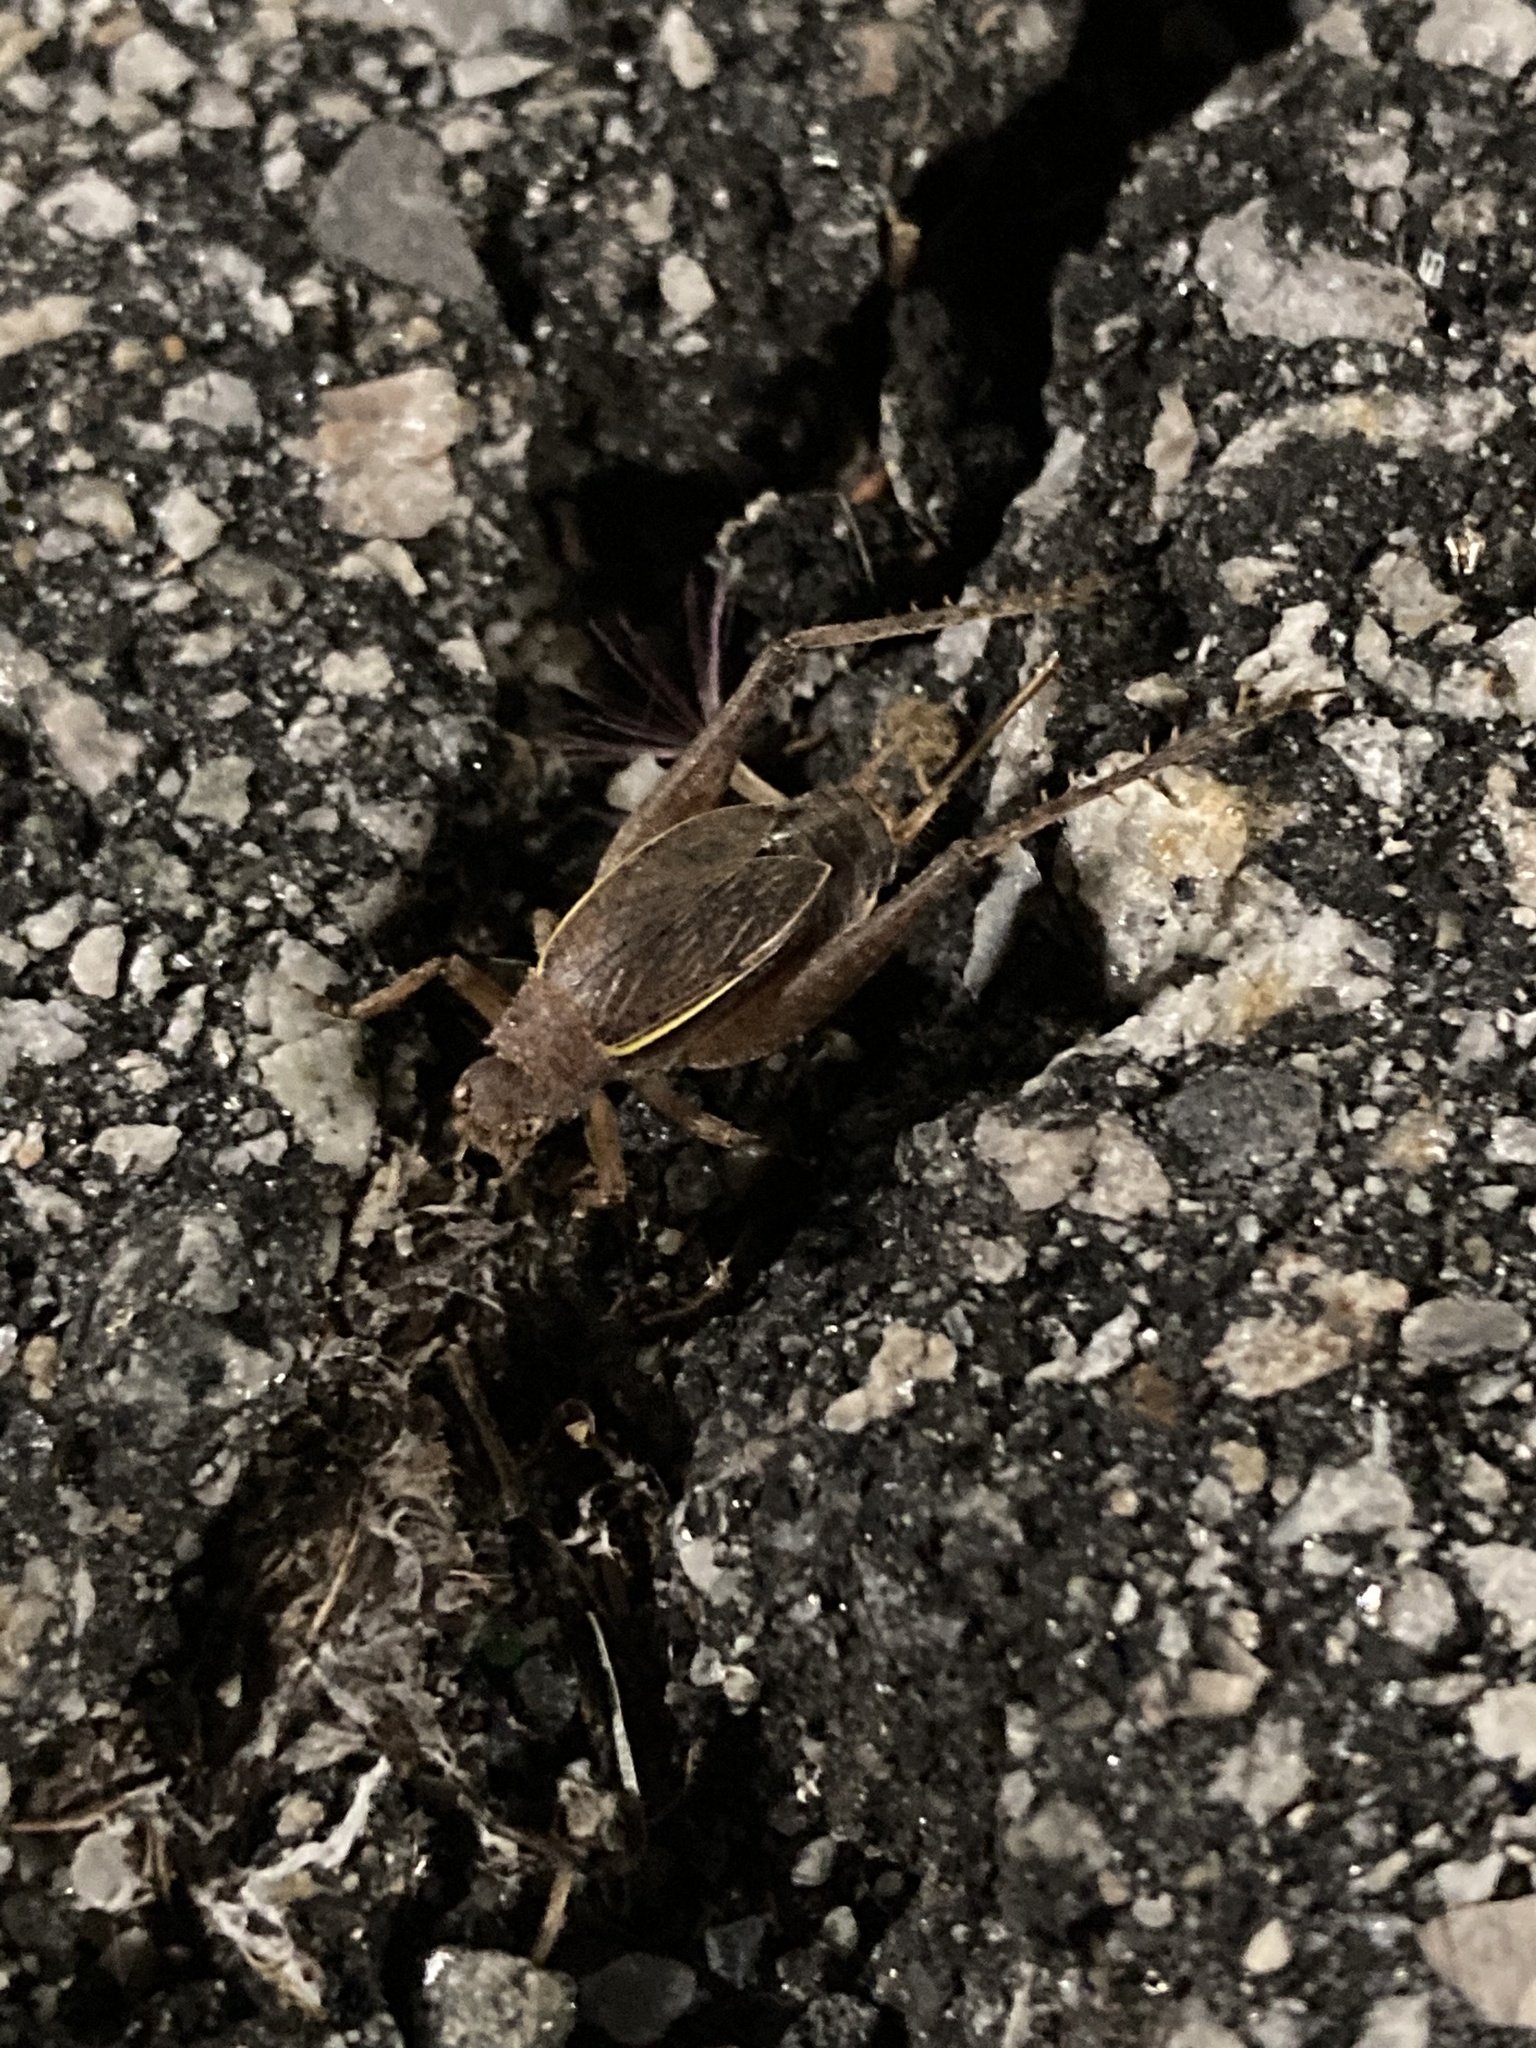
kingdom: Animalia
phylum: Arthropoda
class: Insecta
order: Orthoptera
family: Gryllidae
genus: Hapithus
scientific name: Hapithus agitator
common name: Restless bush cricket
